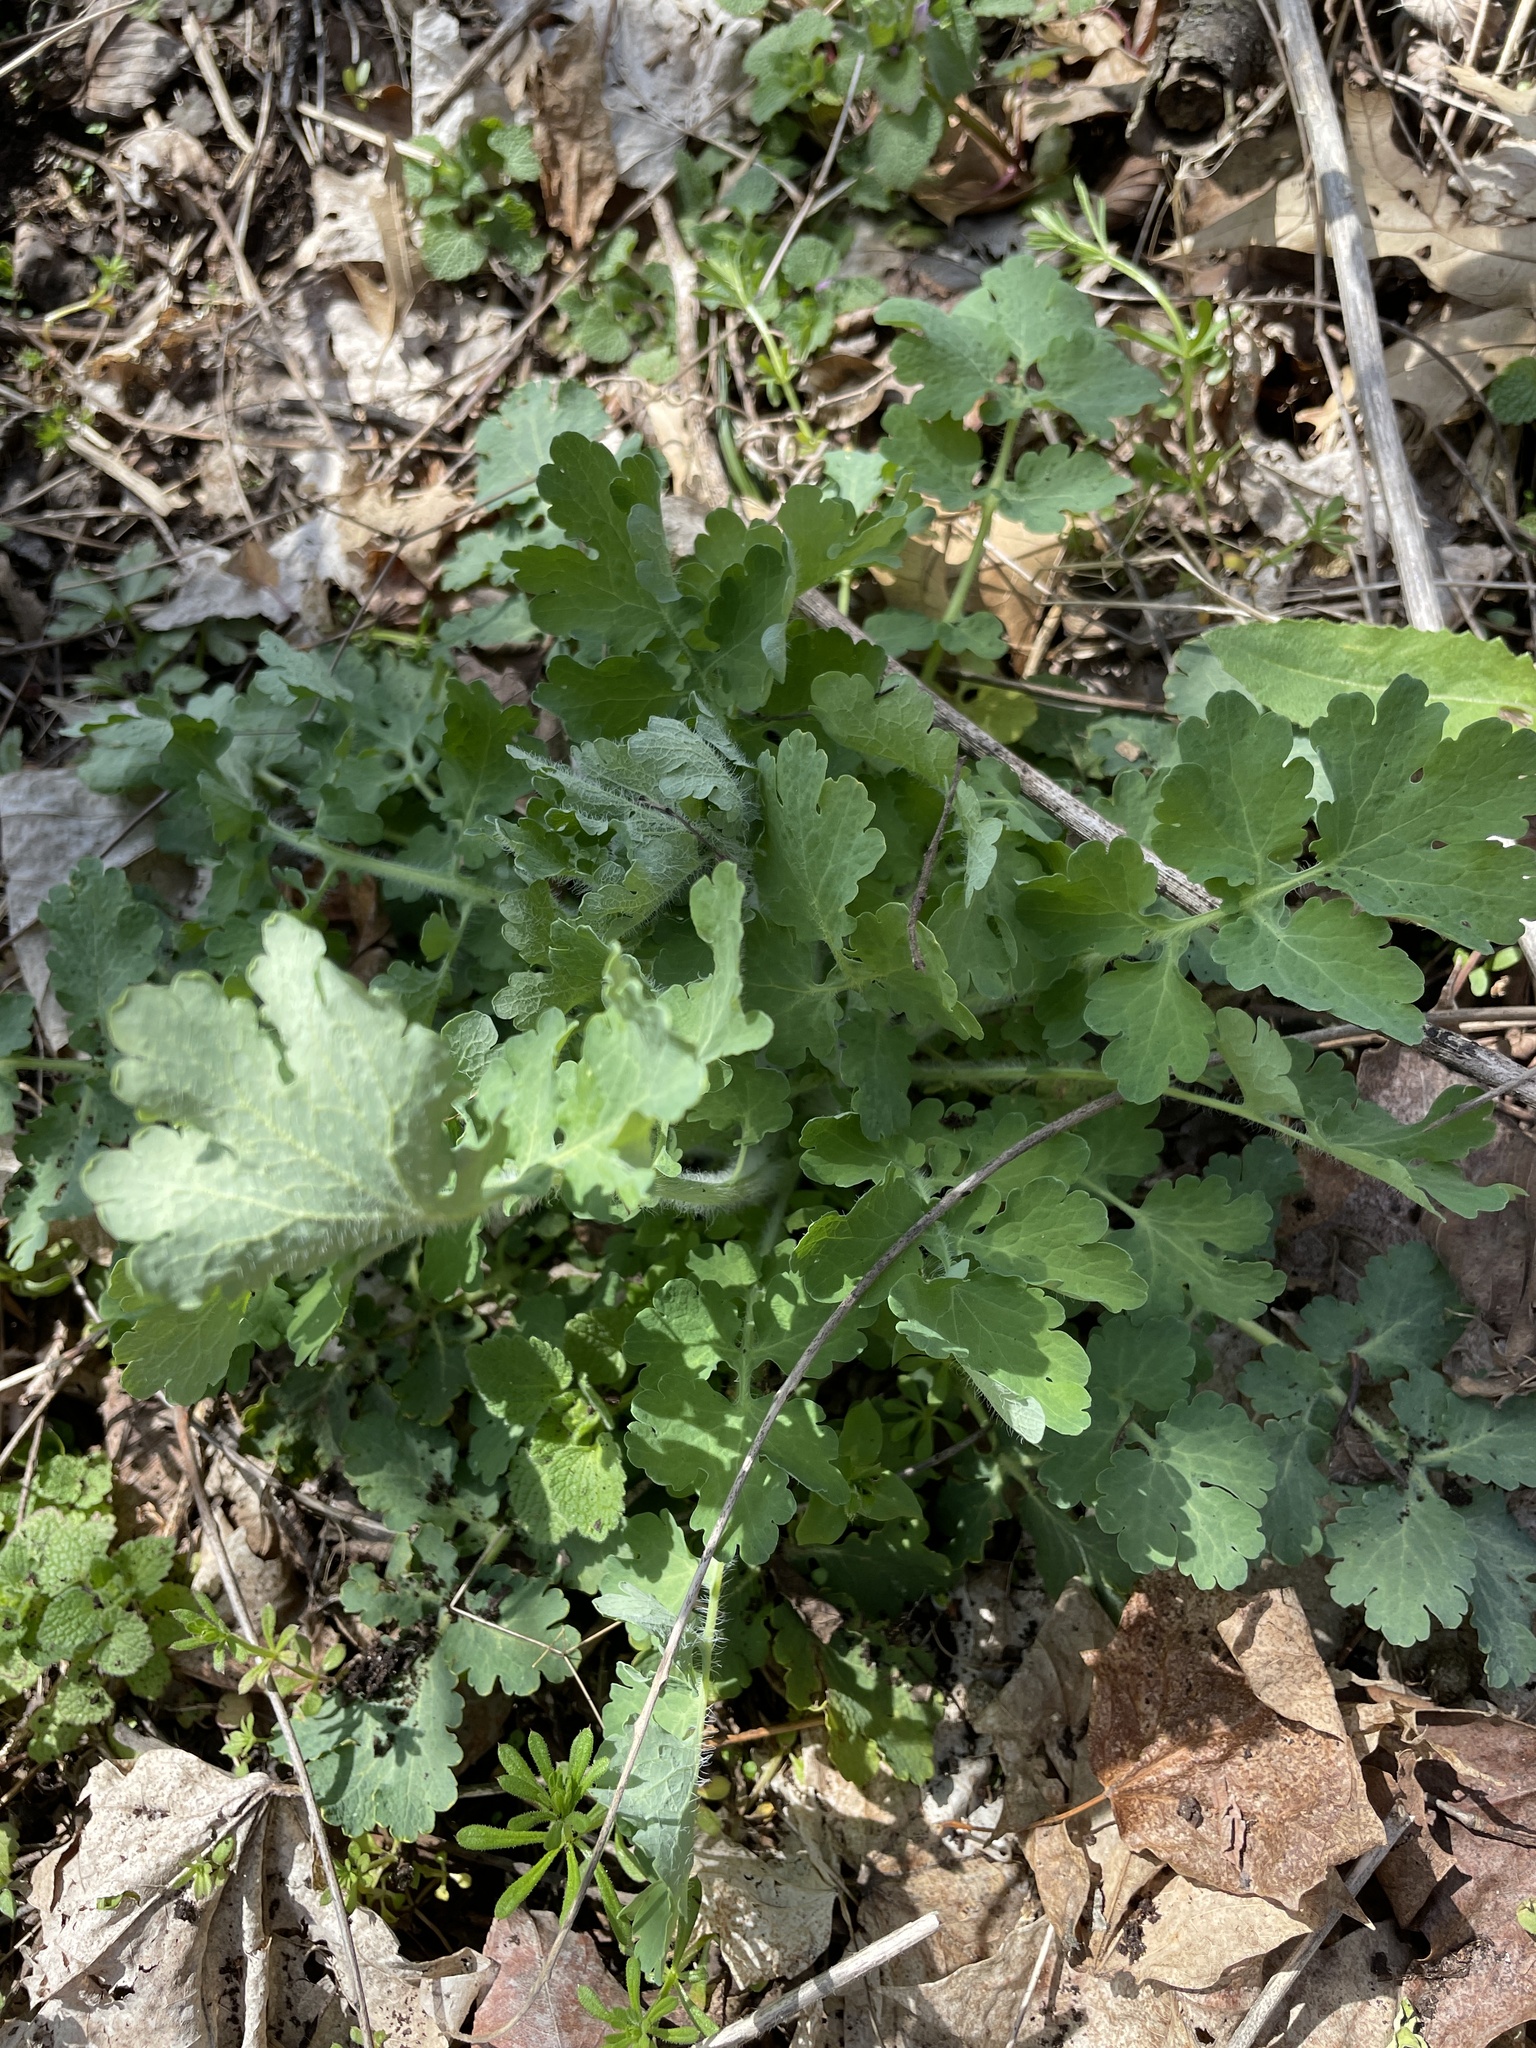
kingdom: Plantae
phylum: Tracheophyta
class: Magnoliopsida
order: Ranunculales
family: Papaveraceae
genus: Chelidonium
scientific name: Chelidonium majus
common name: Greater celandine
